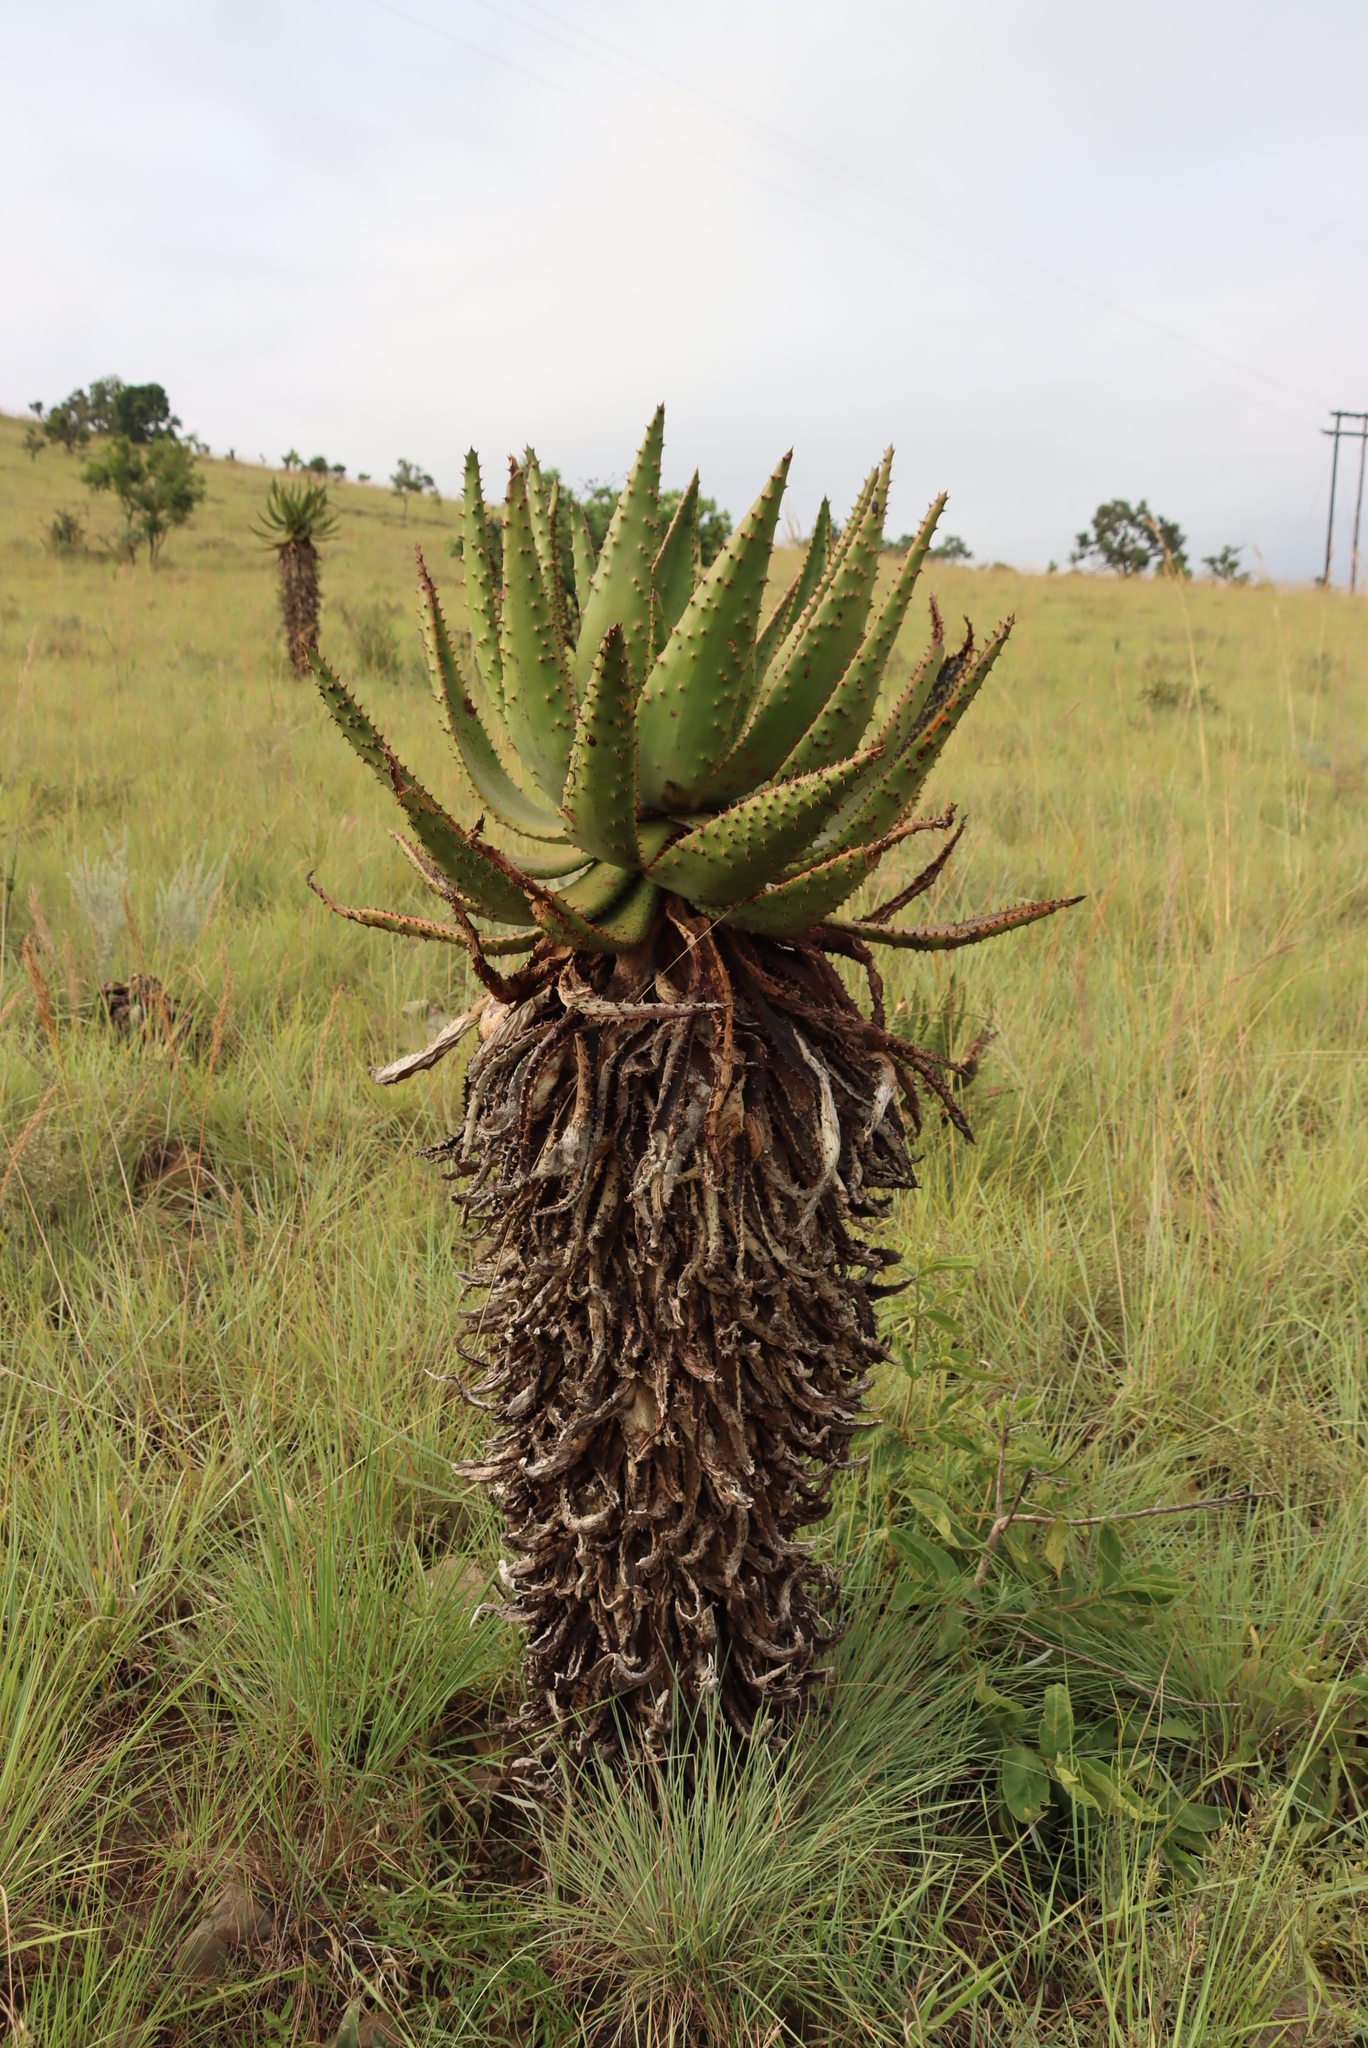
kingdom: Plantae
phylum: Tracheophyta
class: Liliopsida
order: Asparagales
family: Asphodelaceae
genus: Aloe
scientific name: Aloe marlothii
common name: Flat-flowered aloe
